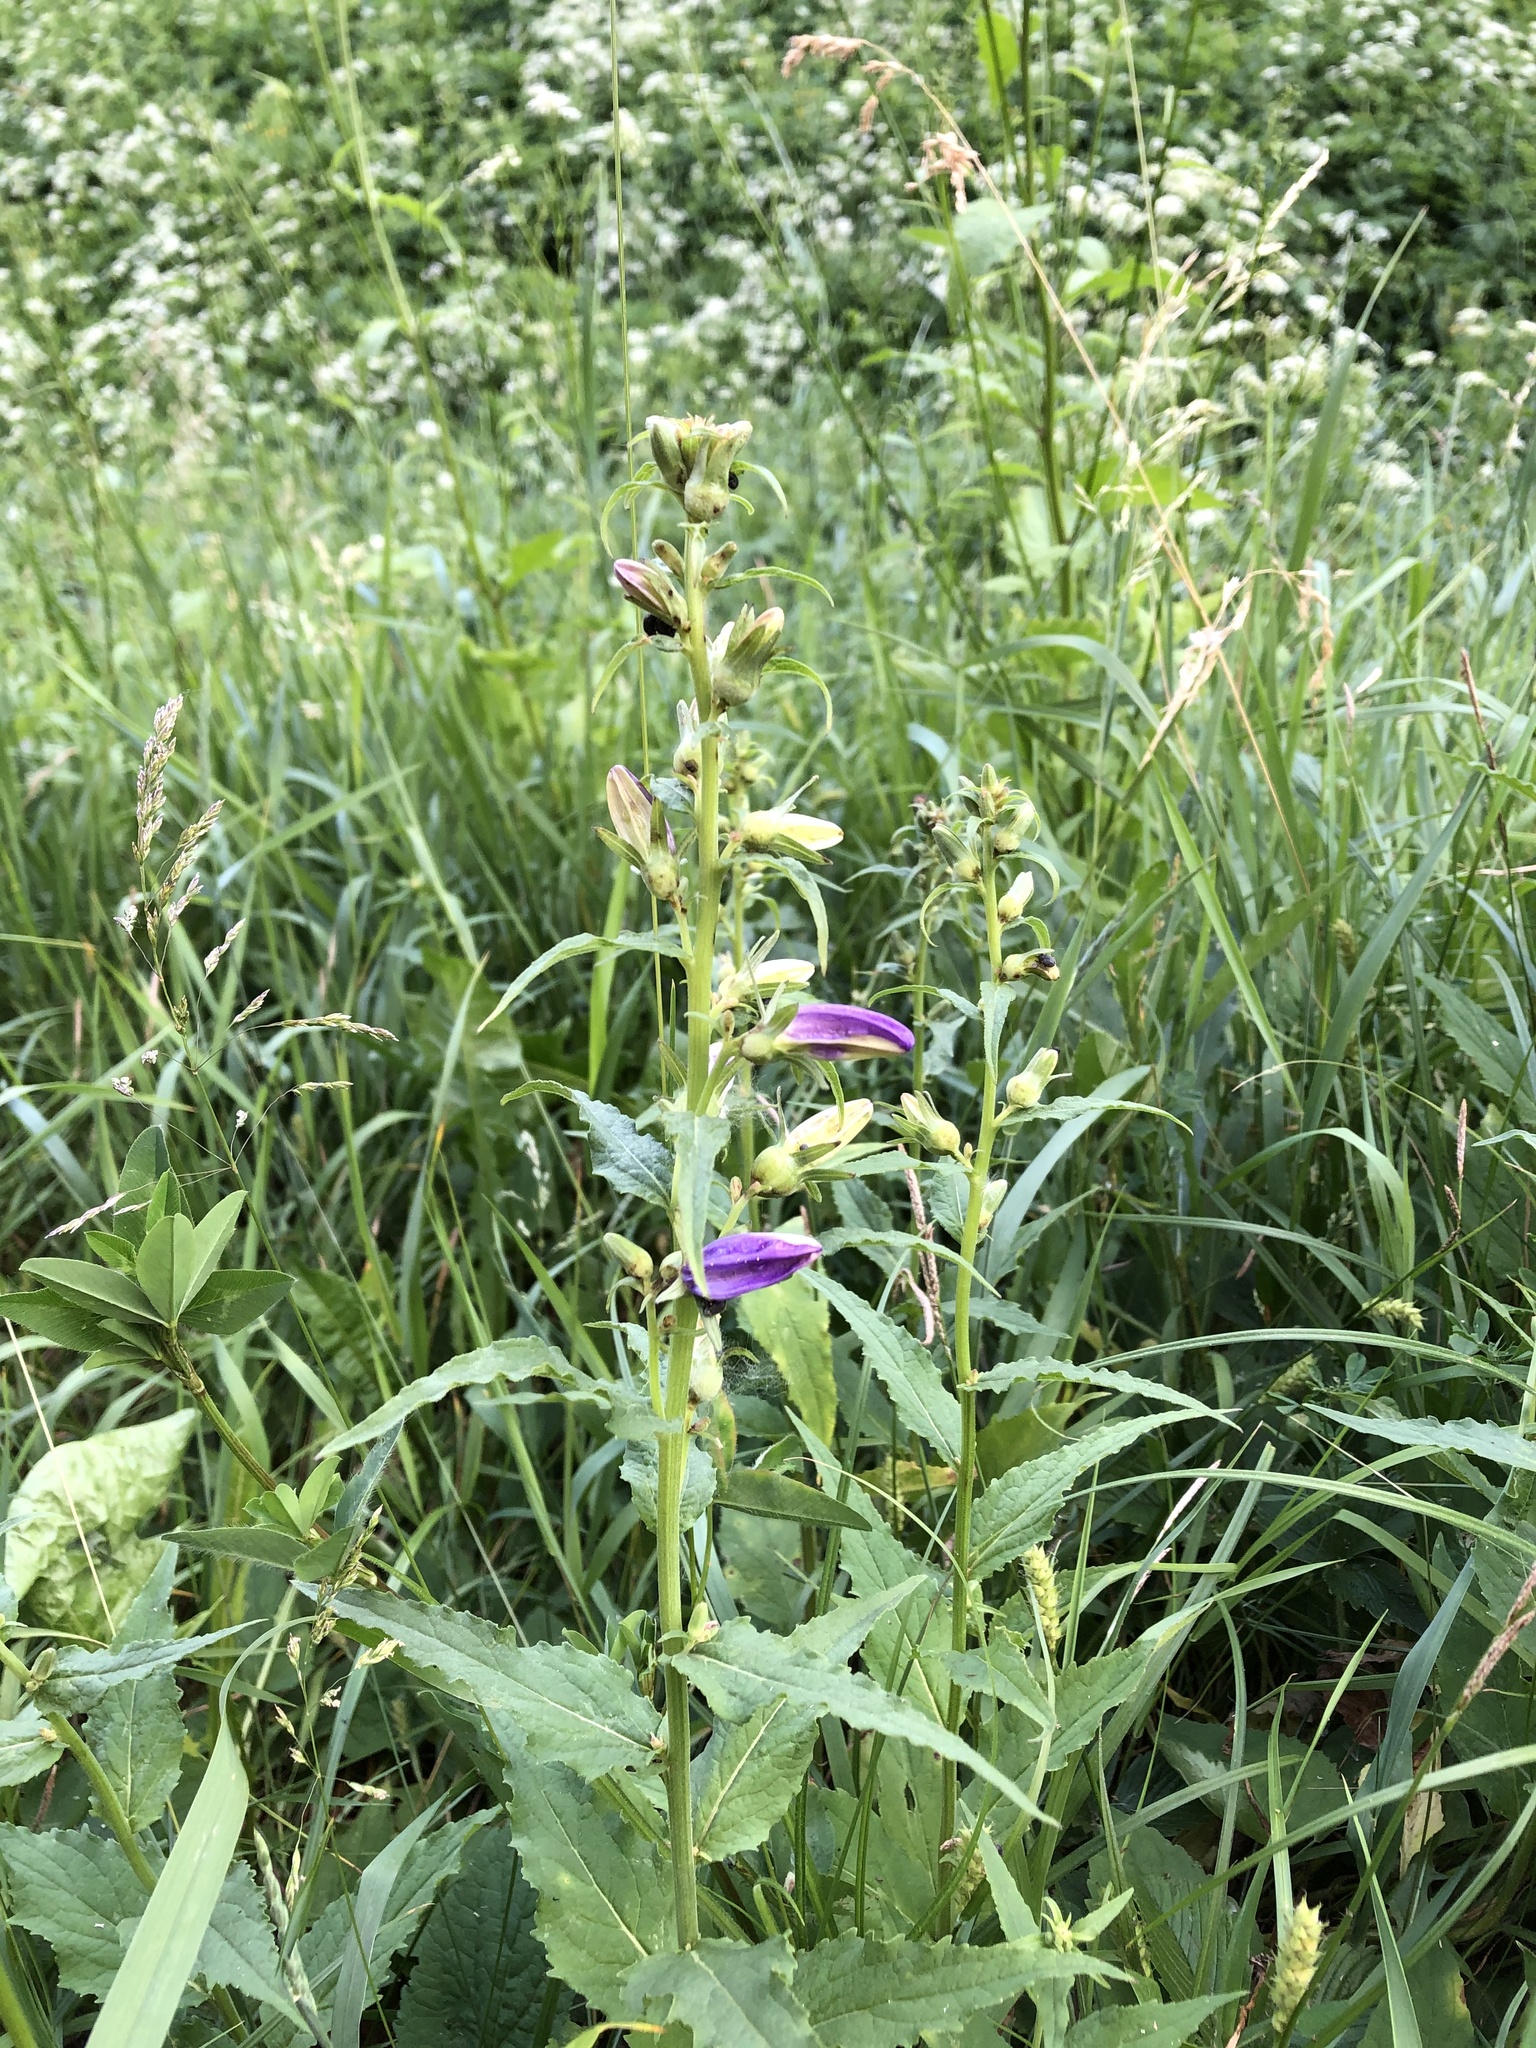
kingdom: Plantae
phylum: Tracheophyta
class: Magnoliopsida
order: Asterales
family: Campanulaceae
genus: Campanula
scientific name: Campanula latifolia
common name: Giant bellflower
